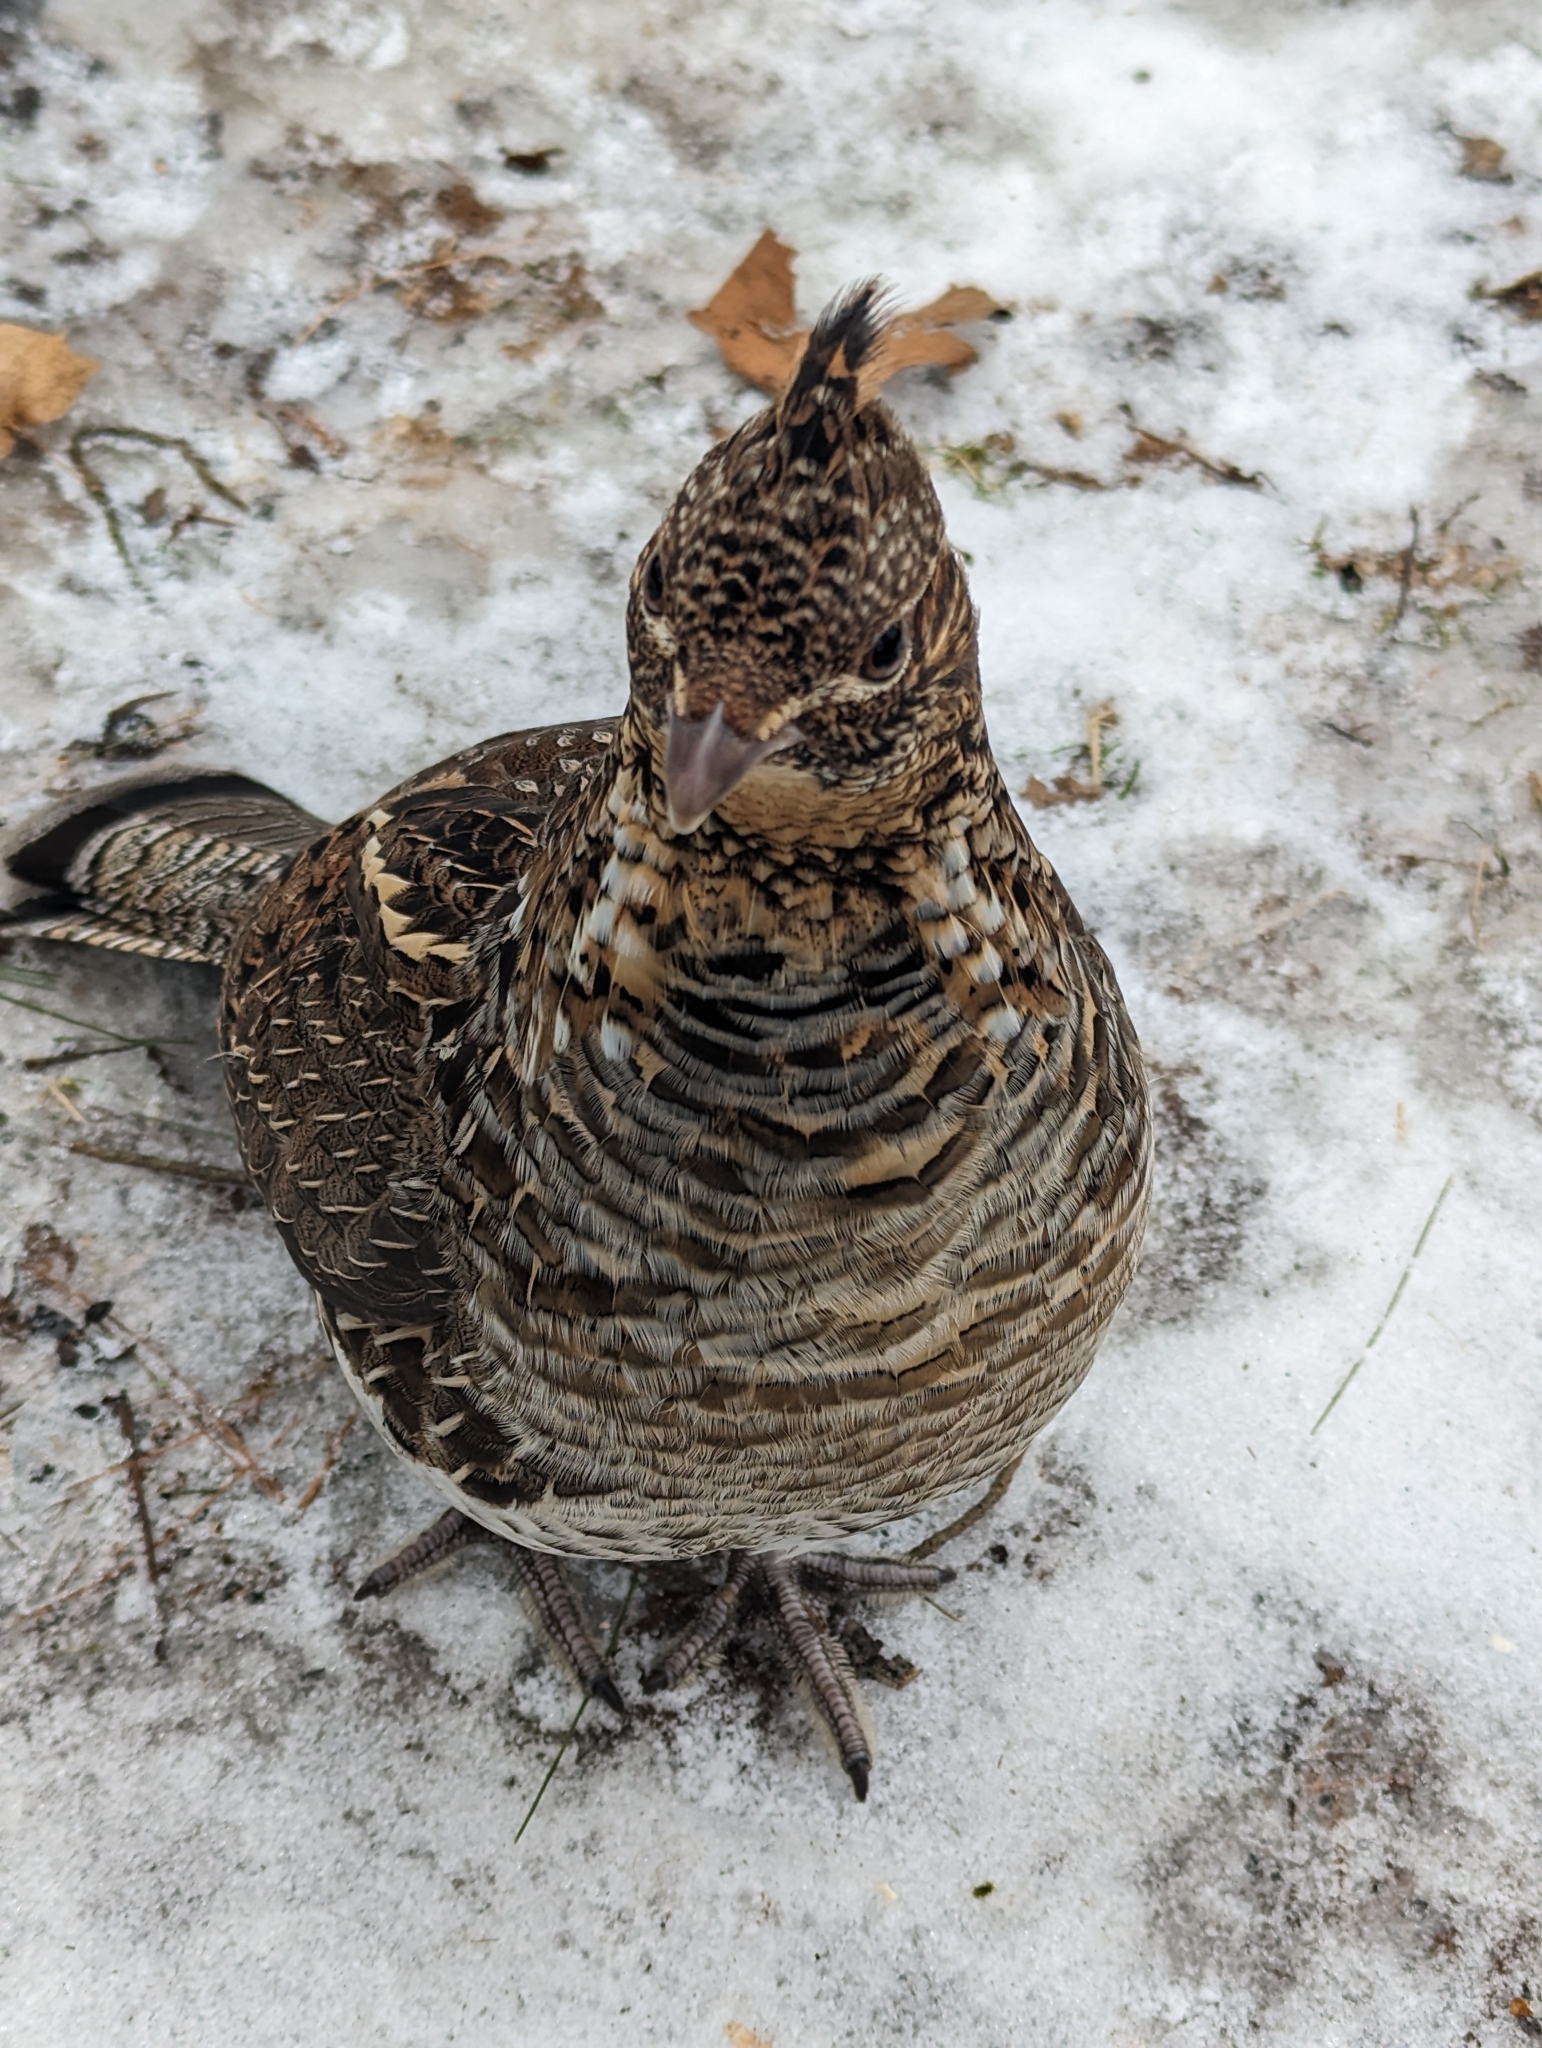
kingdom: Animalia
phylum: Chordata
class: Aves
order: Galliformes
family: Phasianidae
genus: Bonasa
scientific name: Bonasa umbellus
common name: Ruffed grouse
